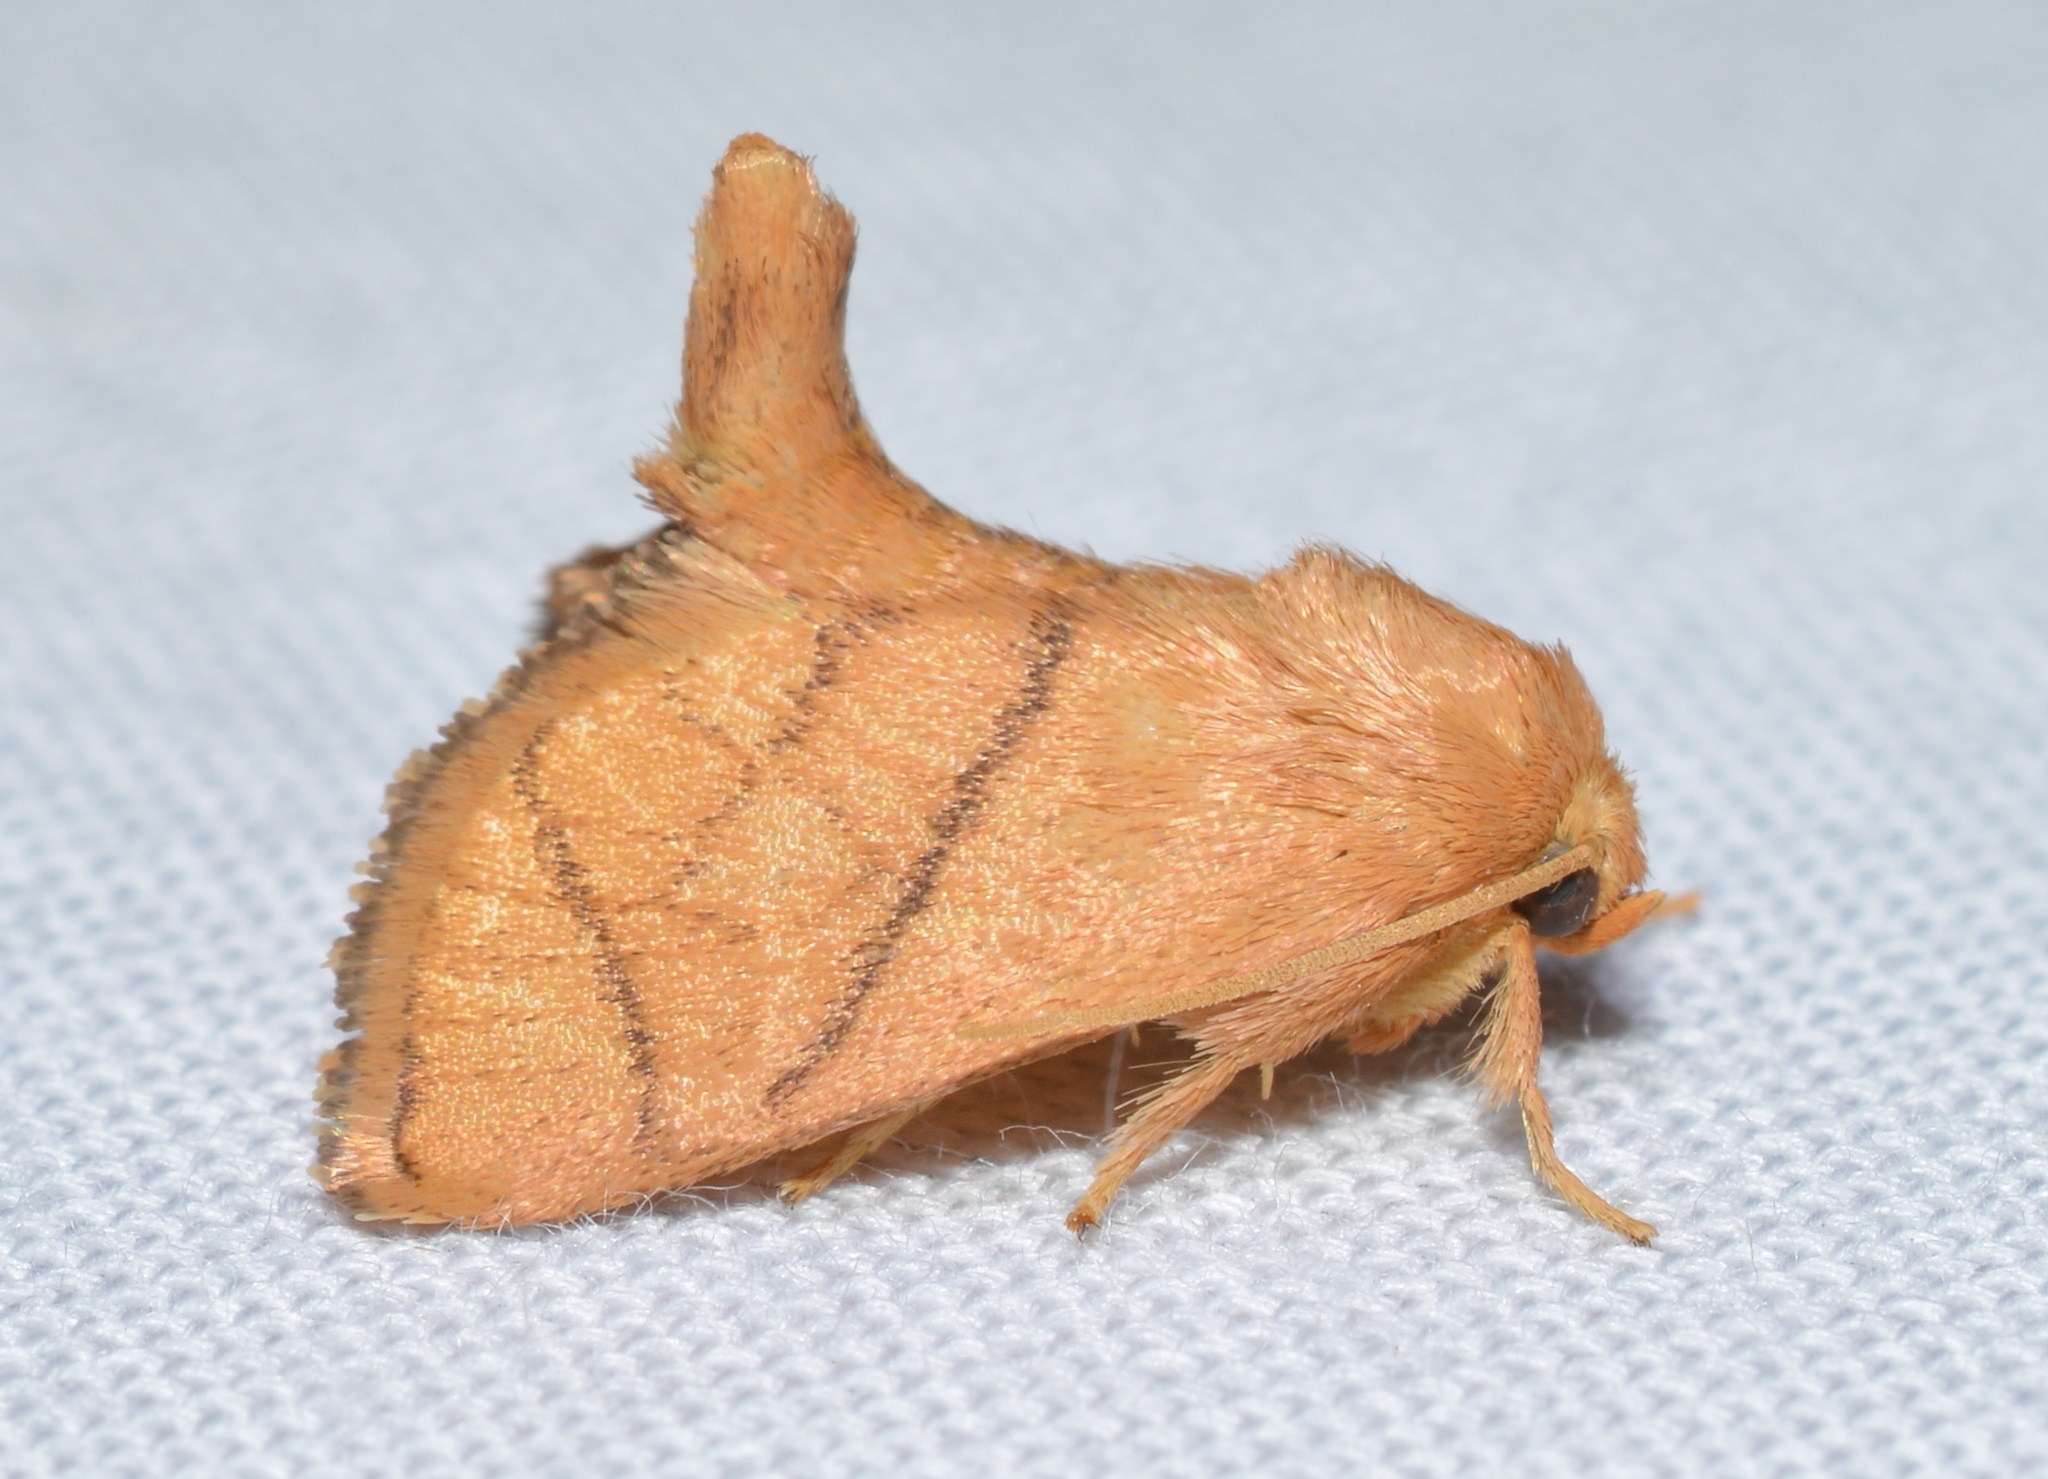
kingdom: Animalia
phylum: Arthropoda
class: Insecta
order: Lepidoptera
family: Limacodidae
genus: Apoda
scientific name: Apoda y-inversa
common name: Yellow-collared slug moth
